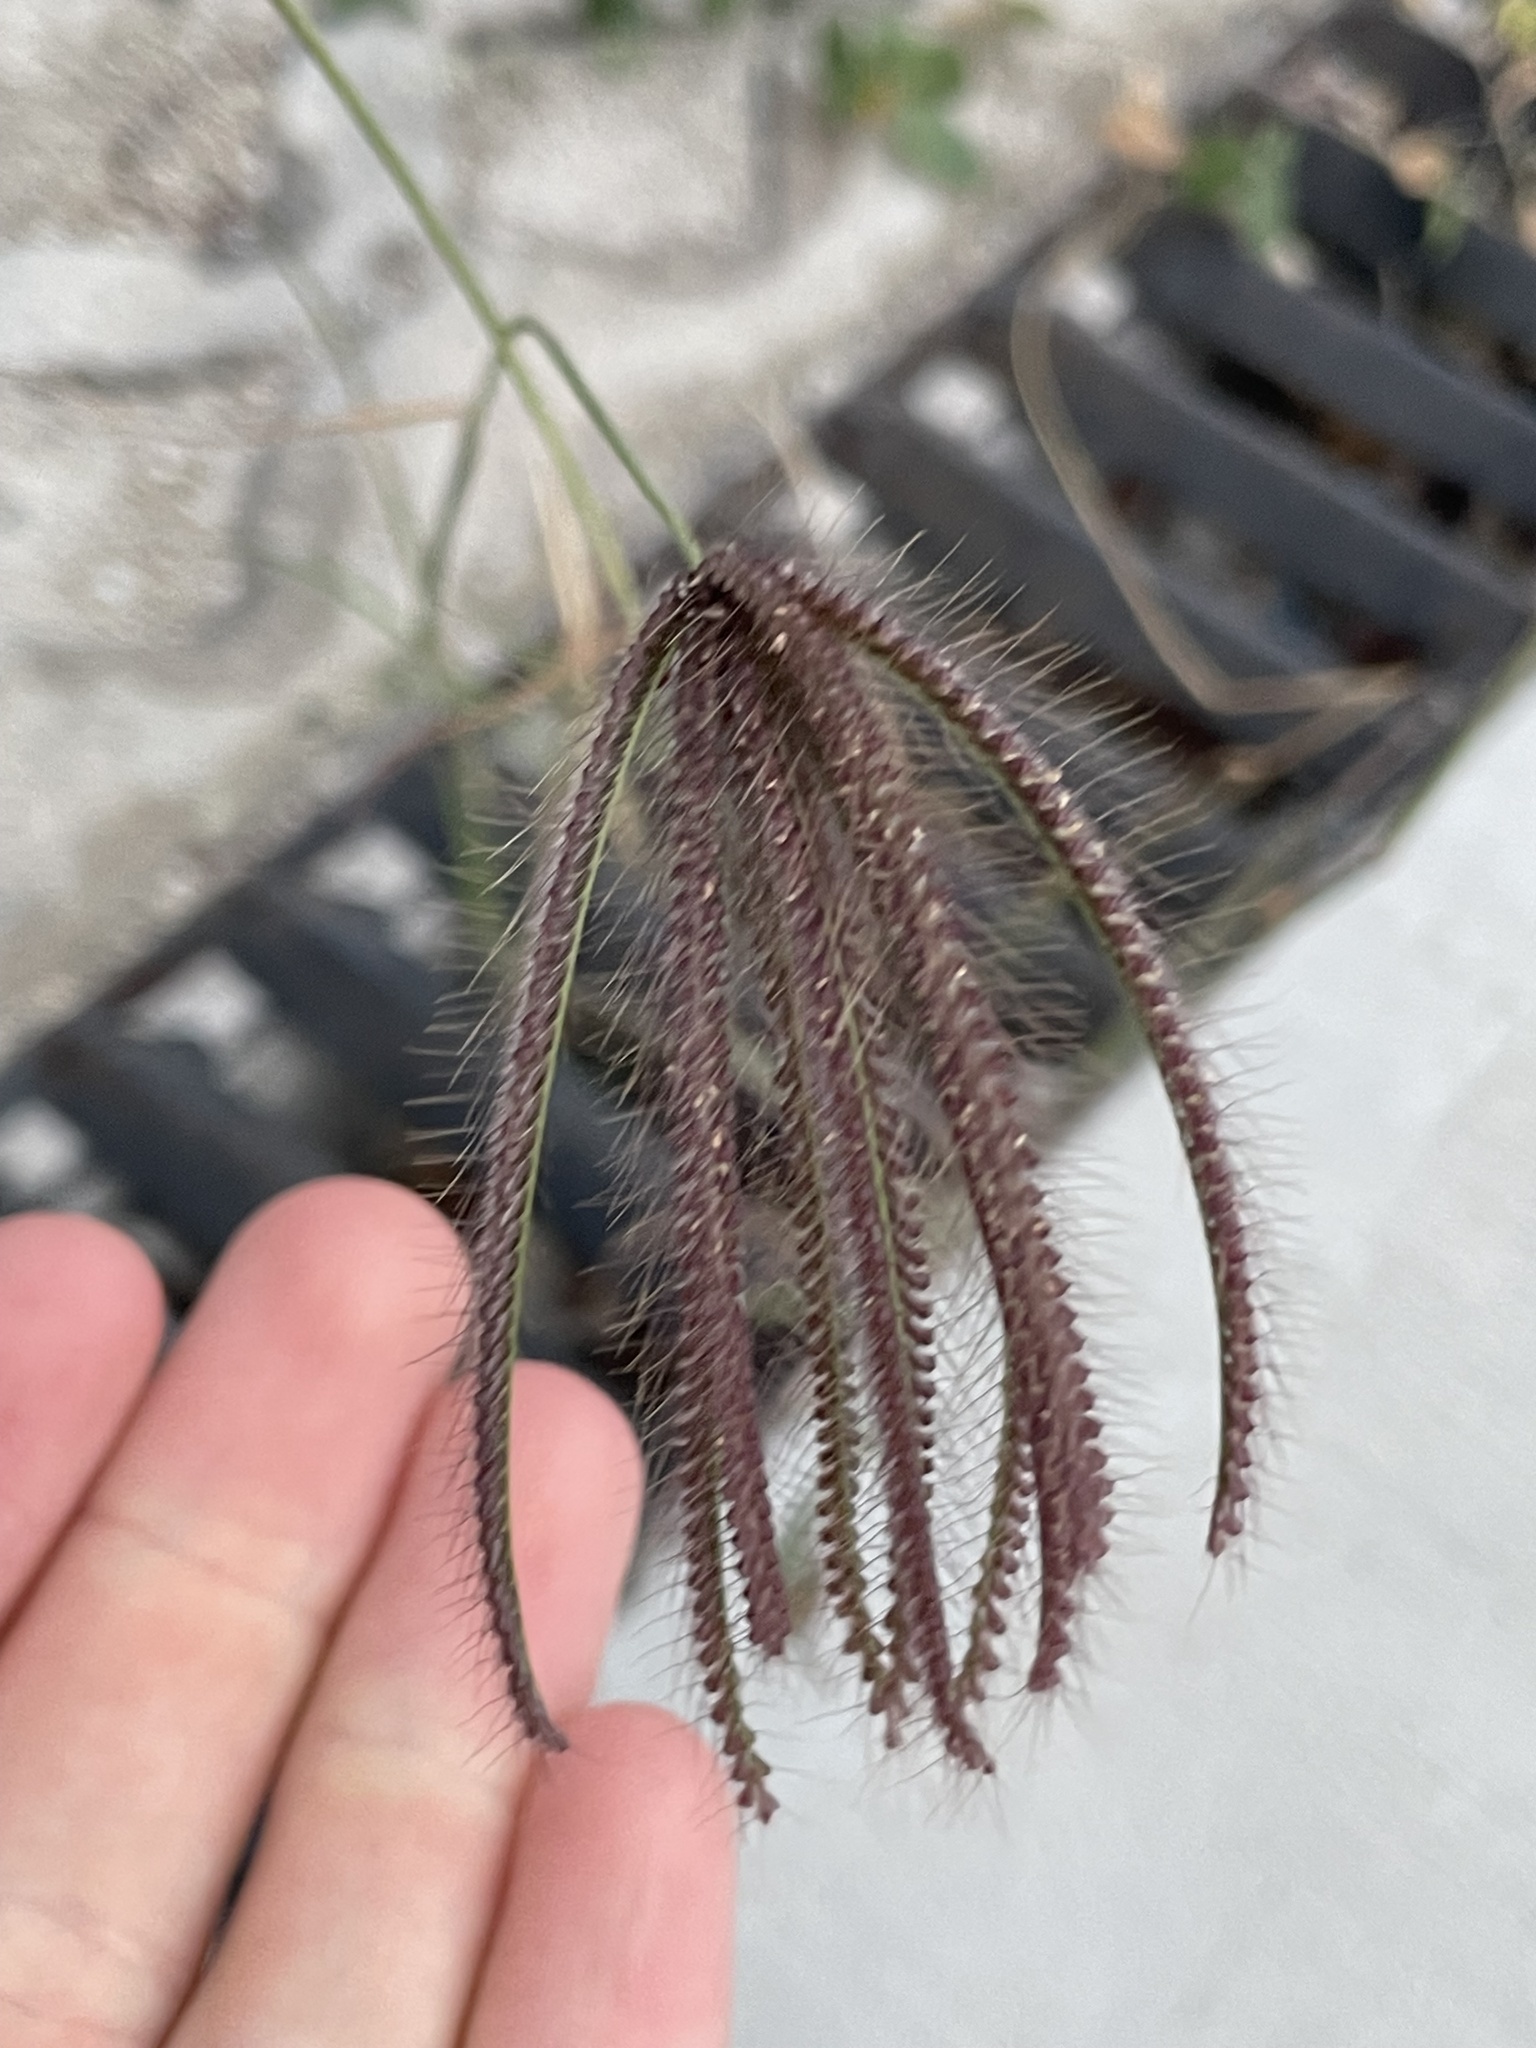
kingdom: Plantae
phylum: Tracheophyta
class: Liliopsida
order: Poales
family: Poaceae
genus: Chloris
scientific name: Chloris barbata
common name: Swollen fingergrass
